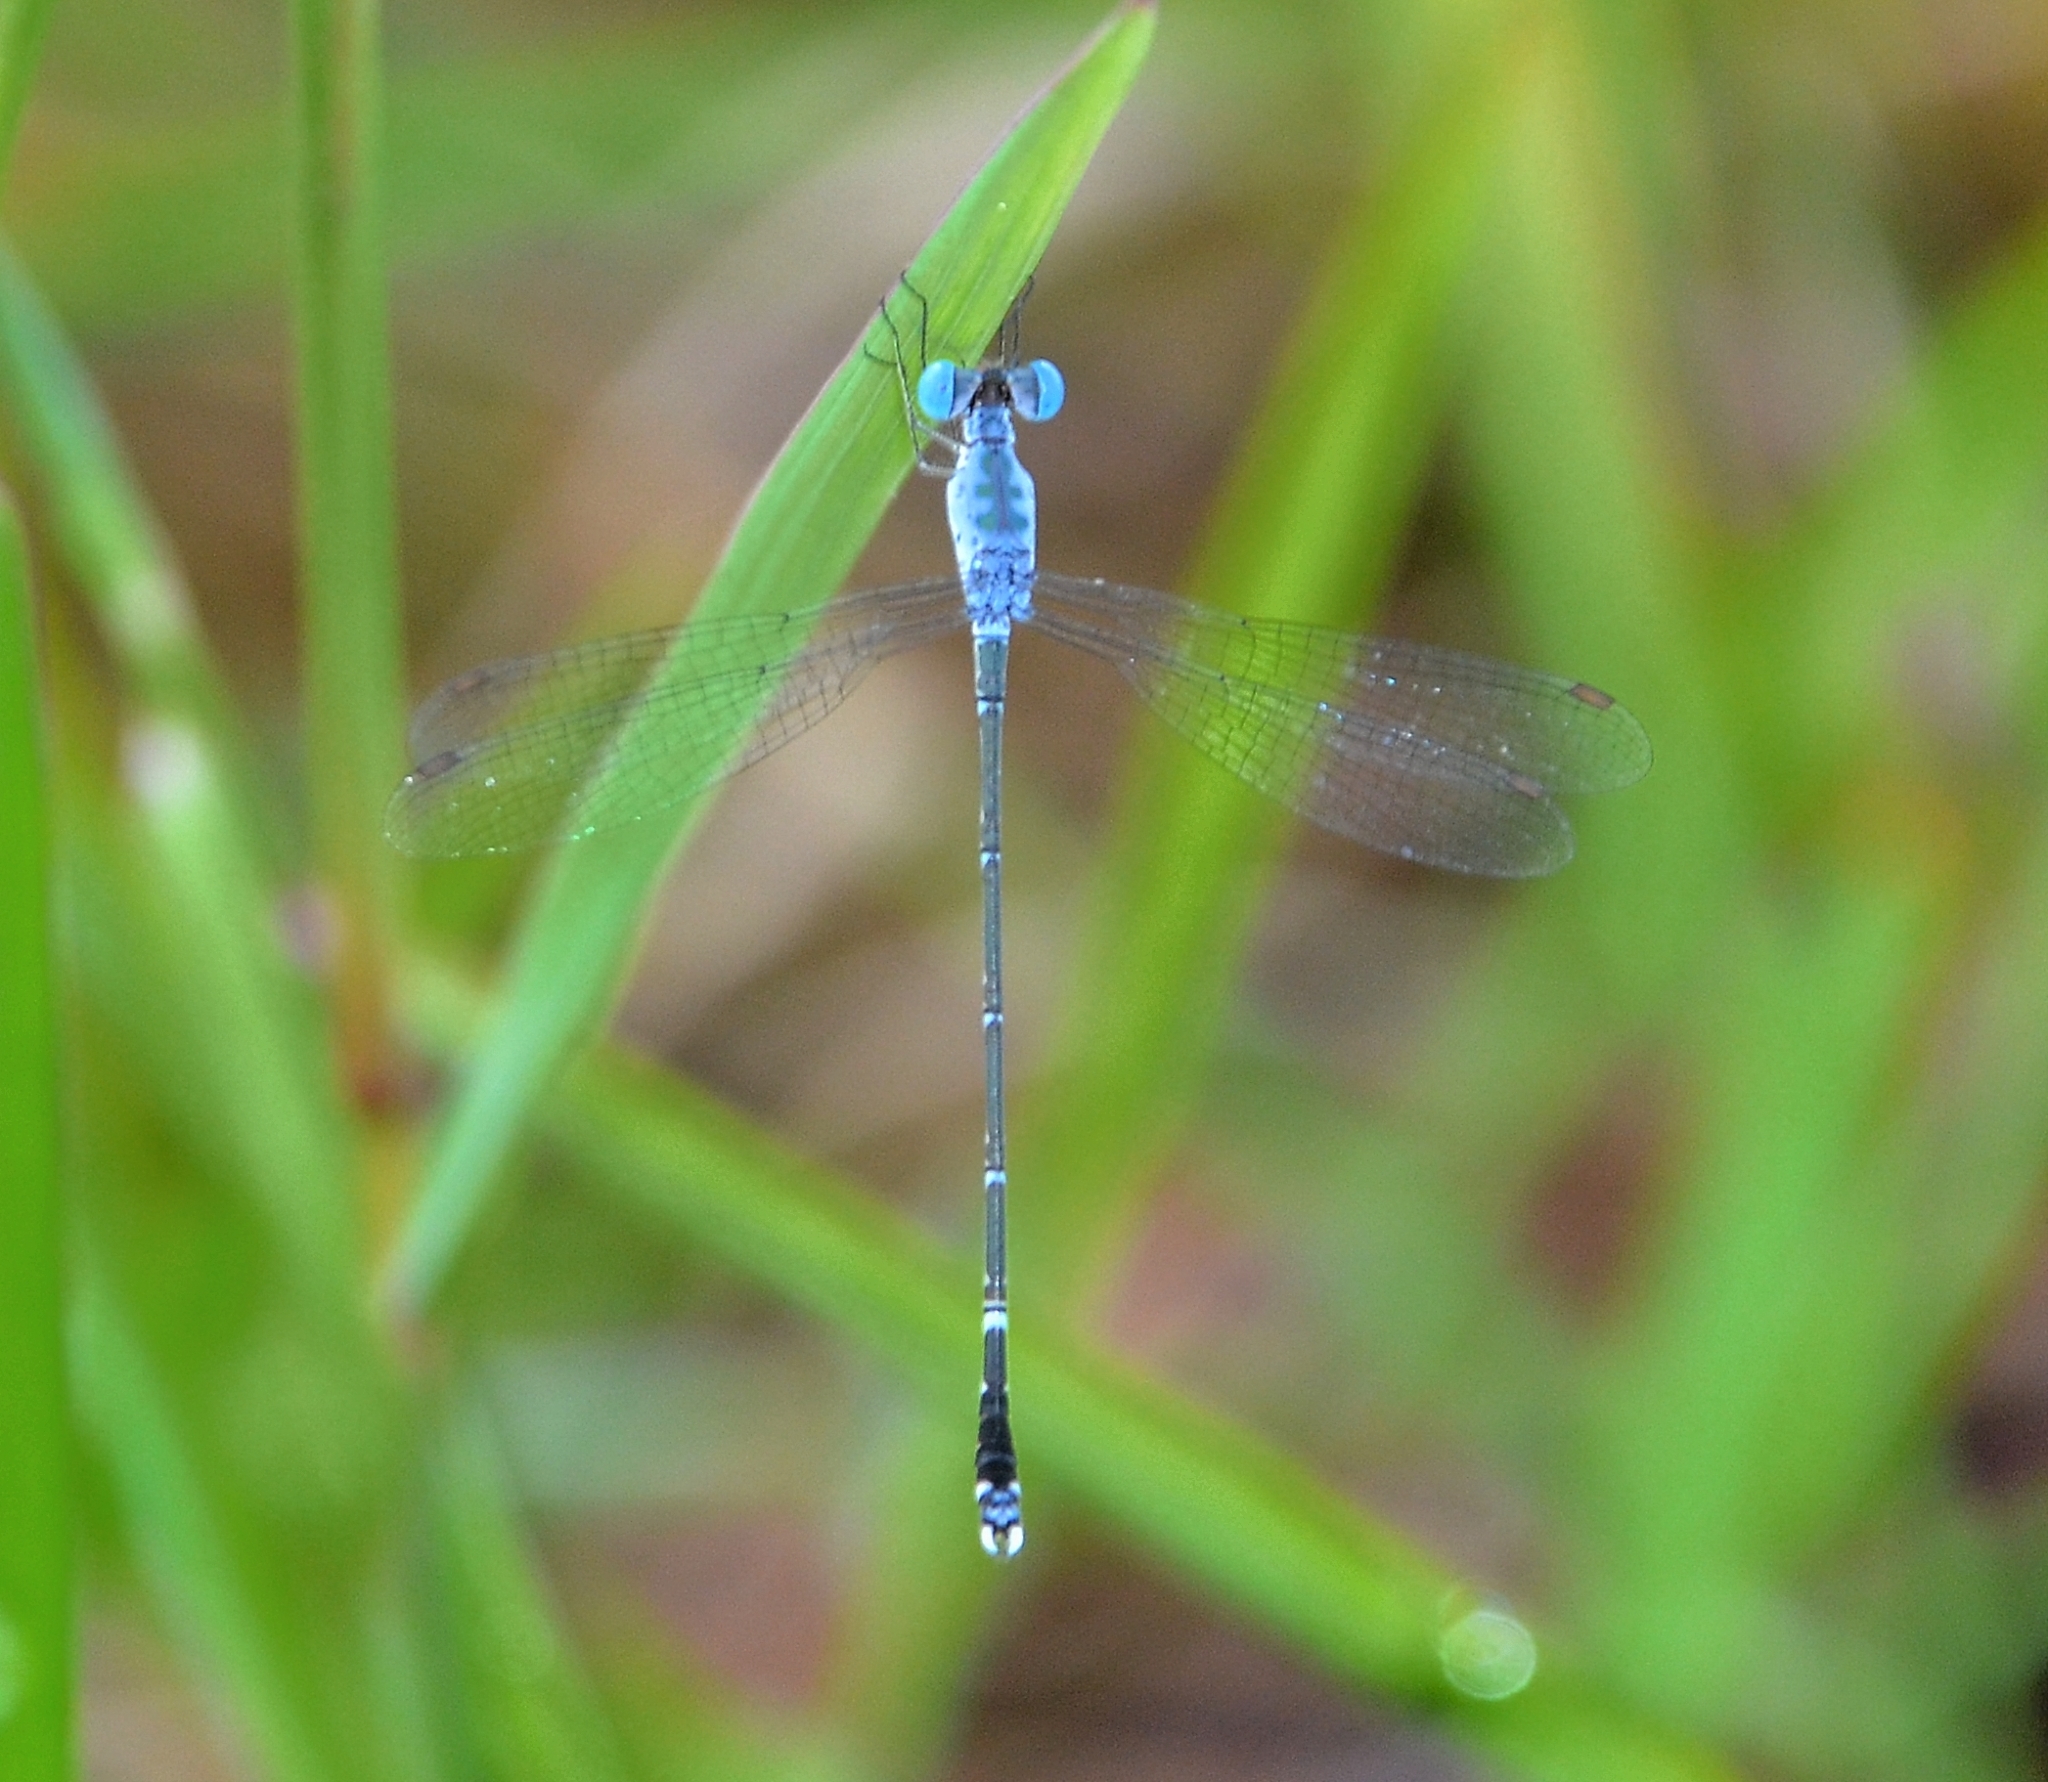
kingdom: Animalia
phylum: Arthropoda
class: Insecta
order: Odonata
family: Lestidae
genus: Lestes
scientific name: Lestes praemorsus
